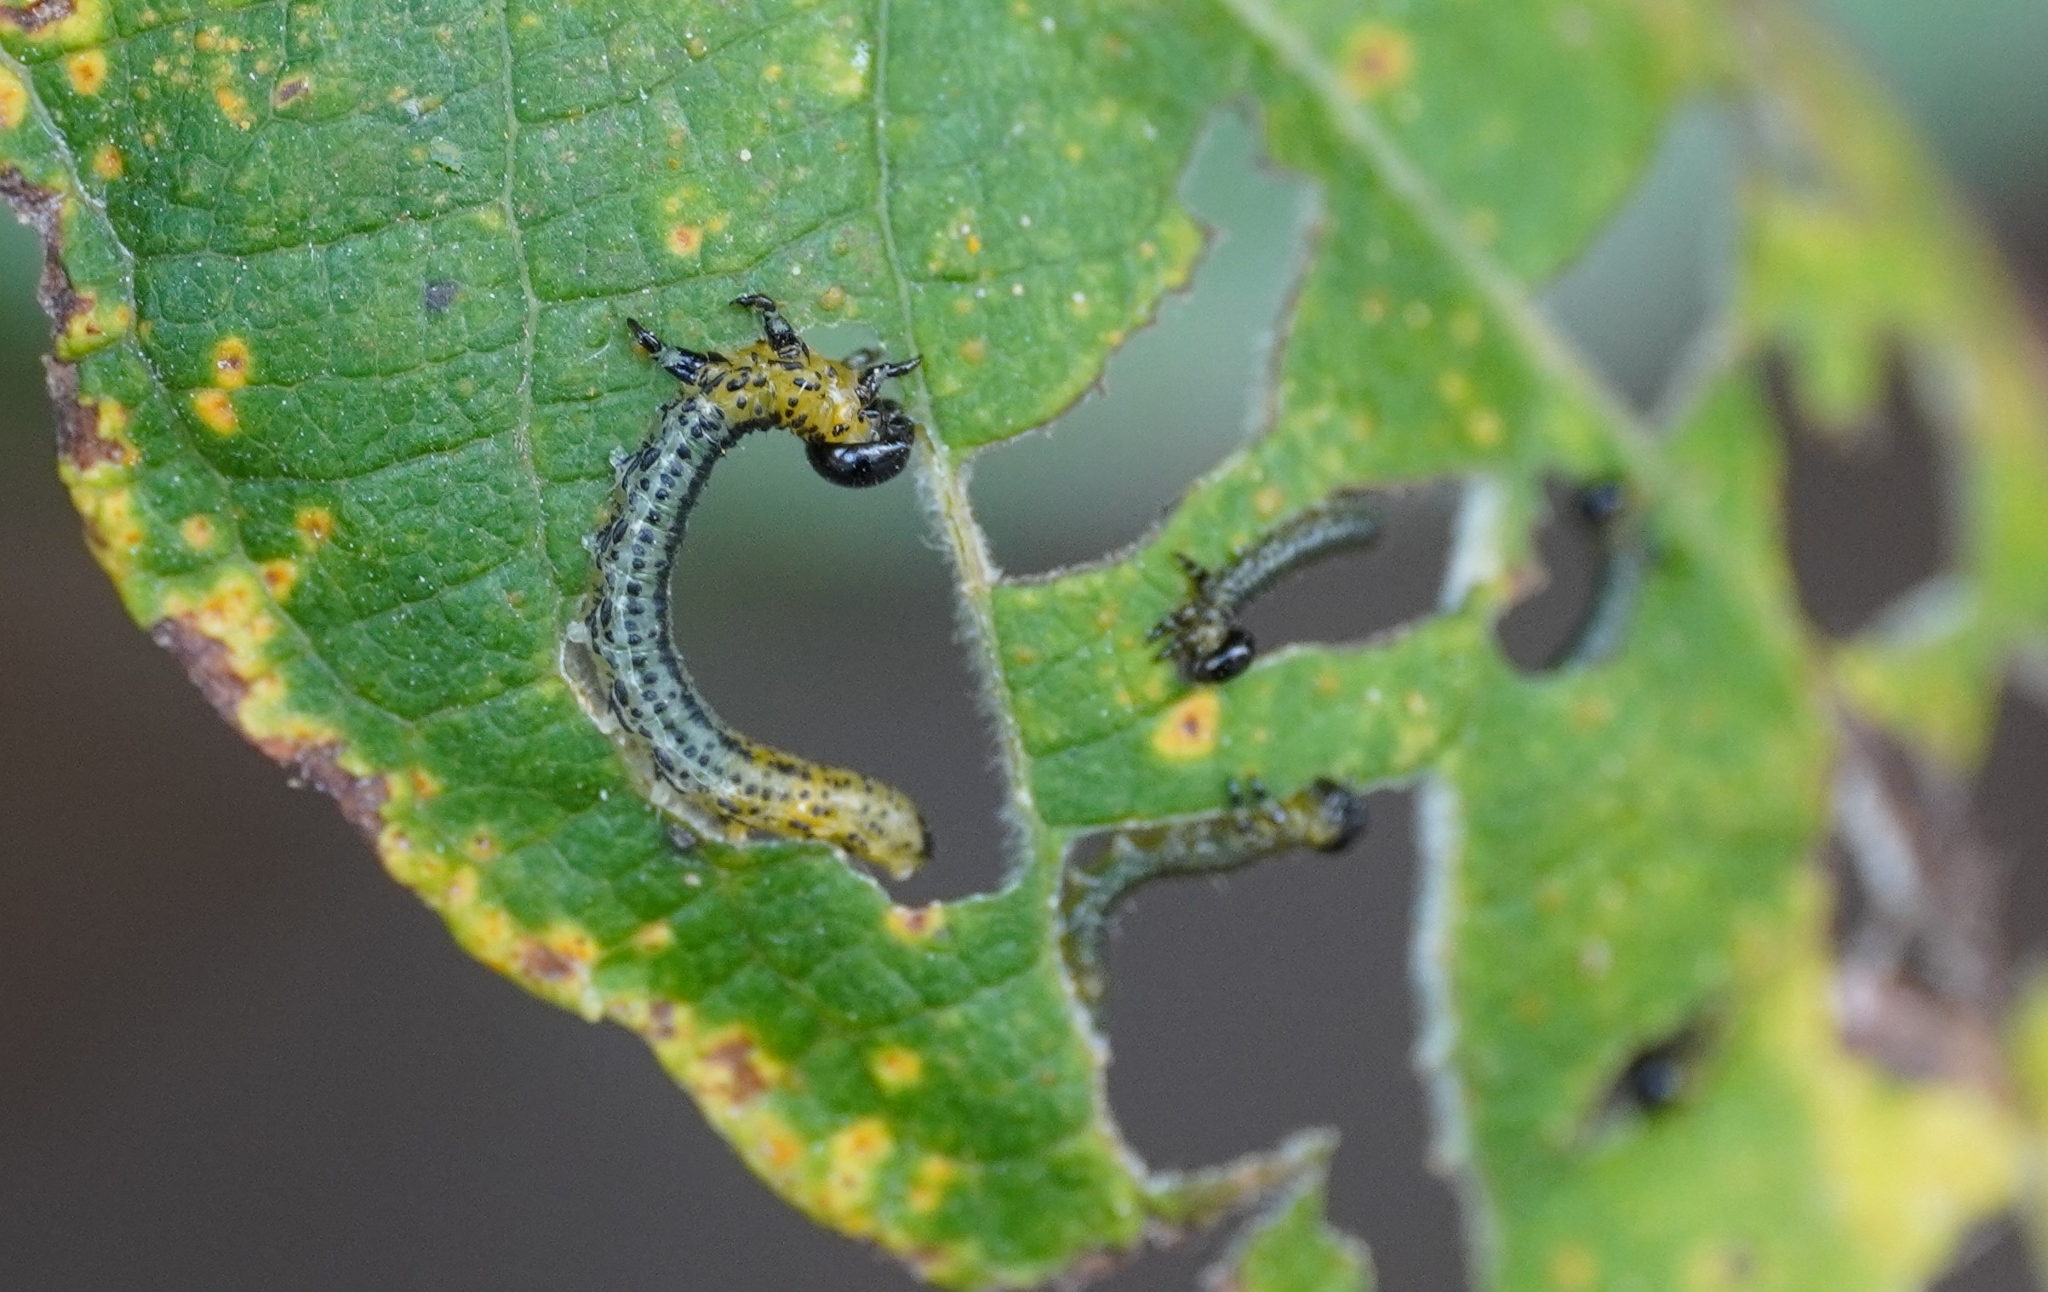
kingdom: Animalia
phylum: Arthropoda
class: Insecta
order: Hymenoptera
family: Tenthredinidae
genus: Nematus
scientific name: Nematus miliaris
